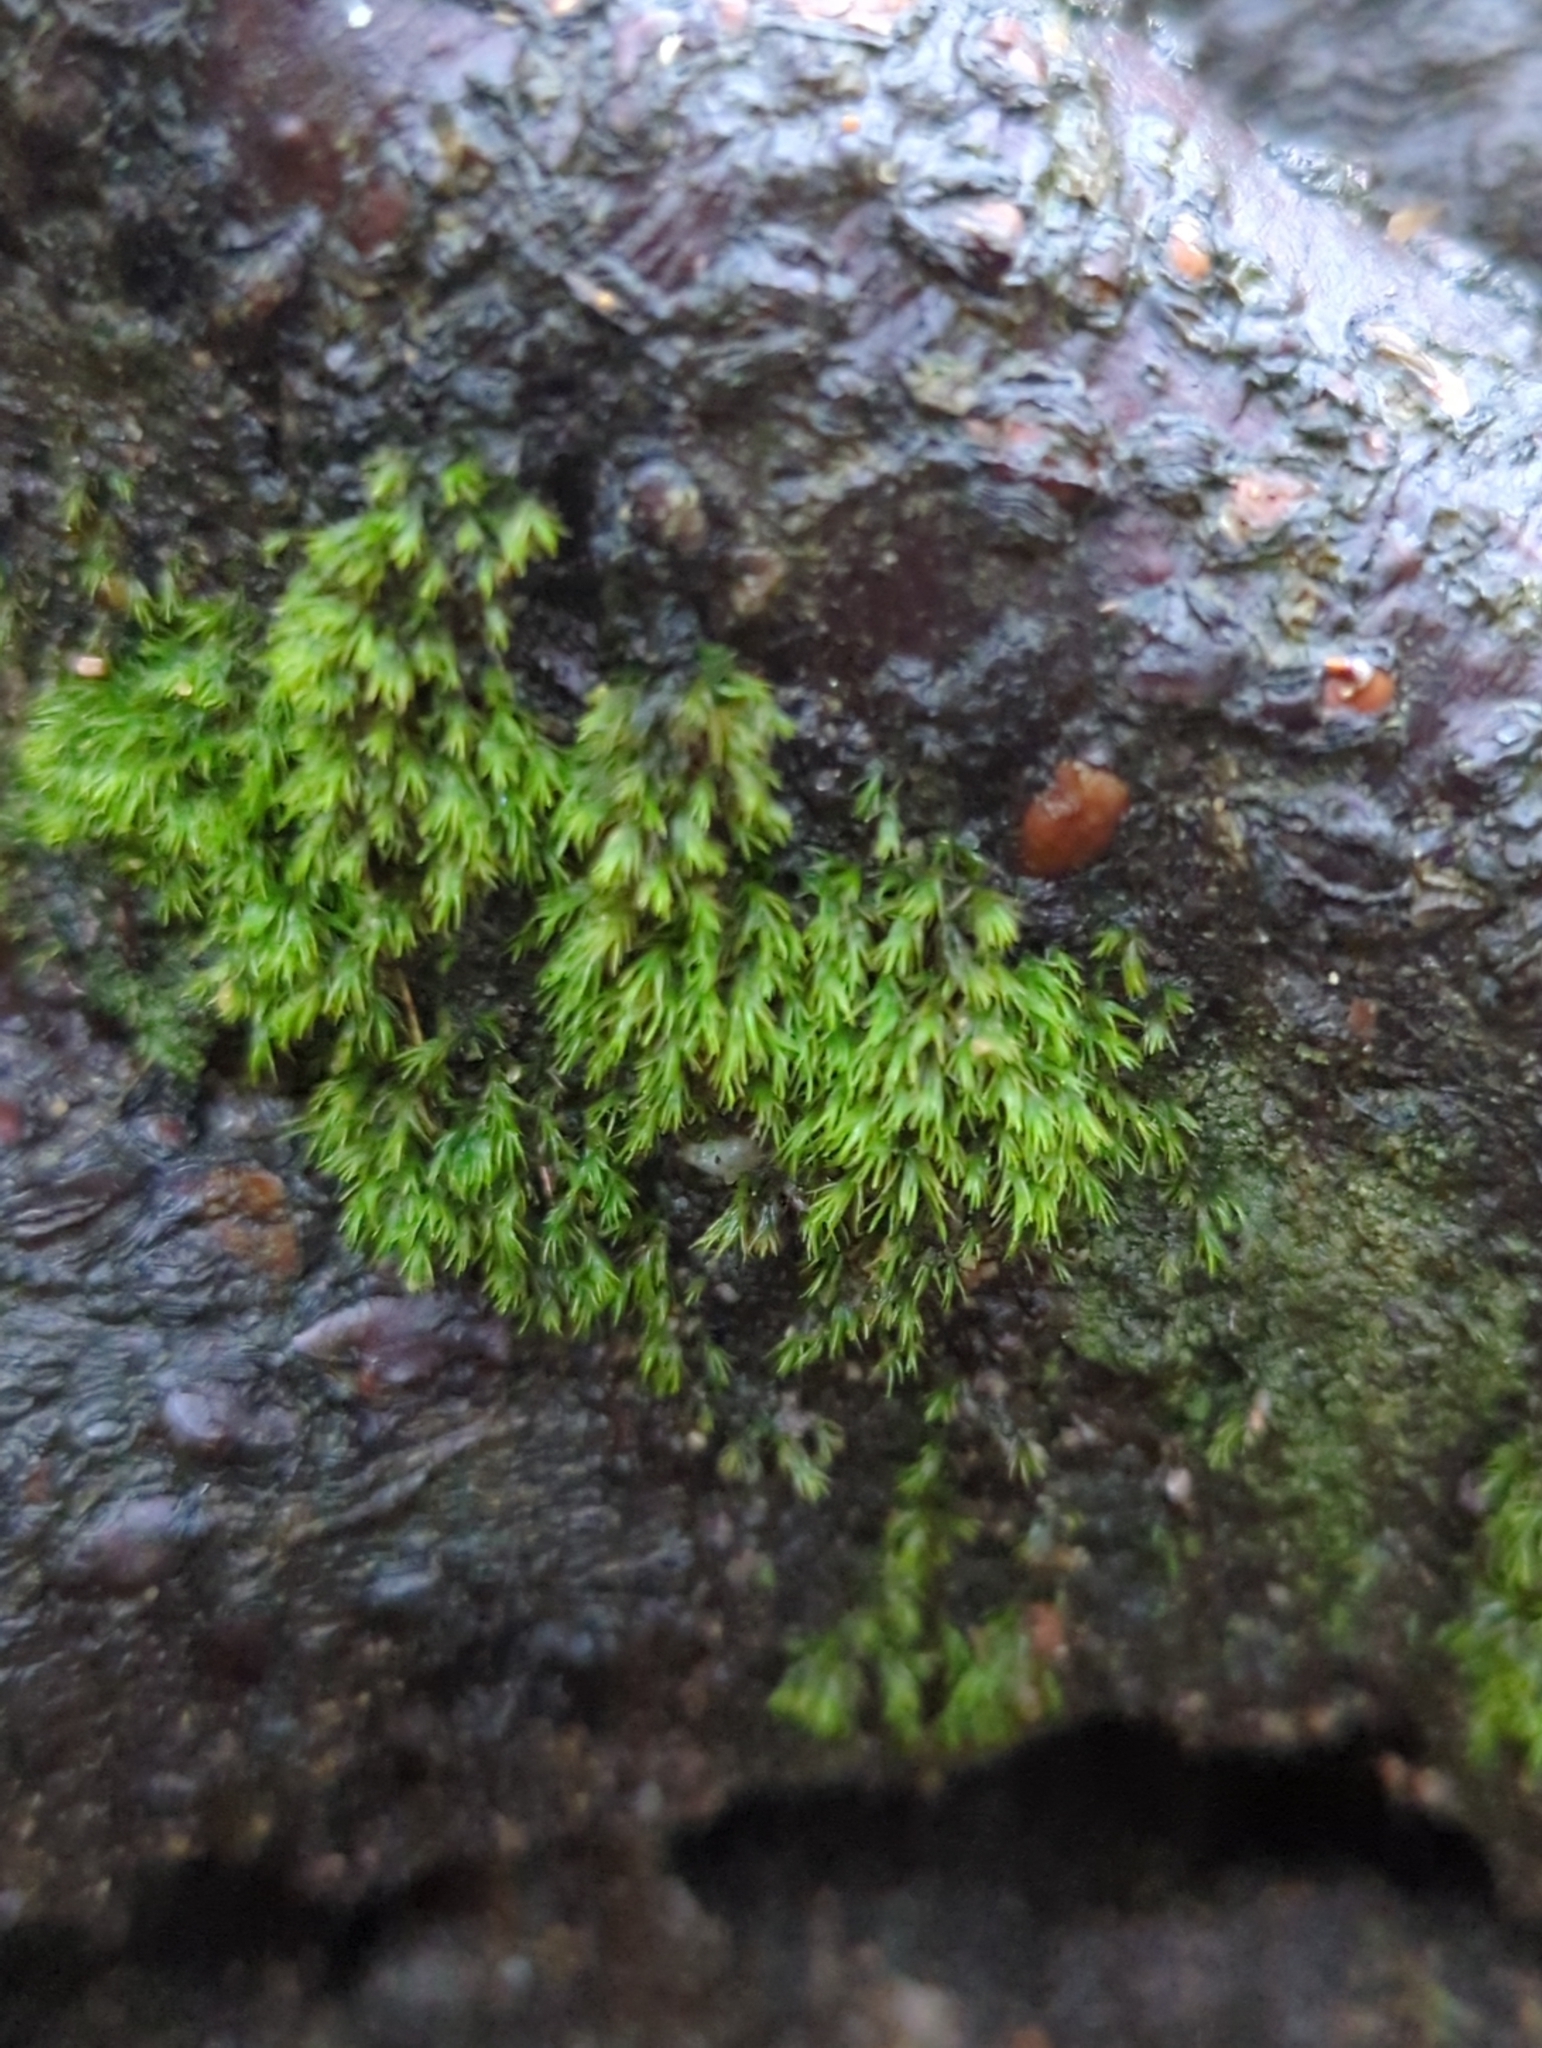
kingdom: Plantae
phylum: Bryophyta
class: Bryopsida
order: Dicranales
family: Dicranellaceae
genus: Dicranella
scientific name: Dicranella heteromalla
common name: Silky forklet moss
